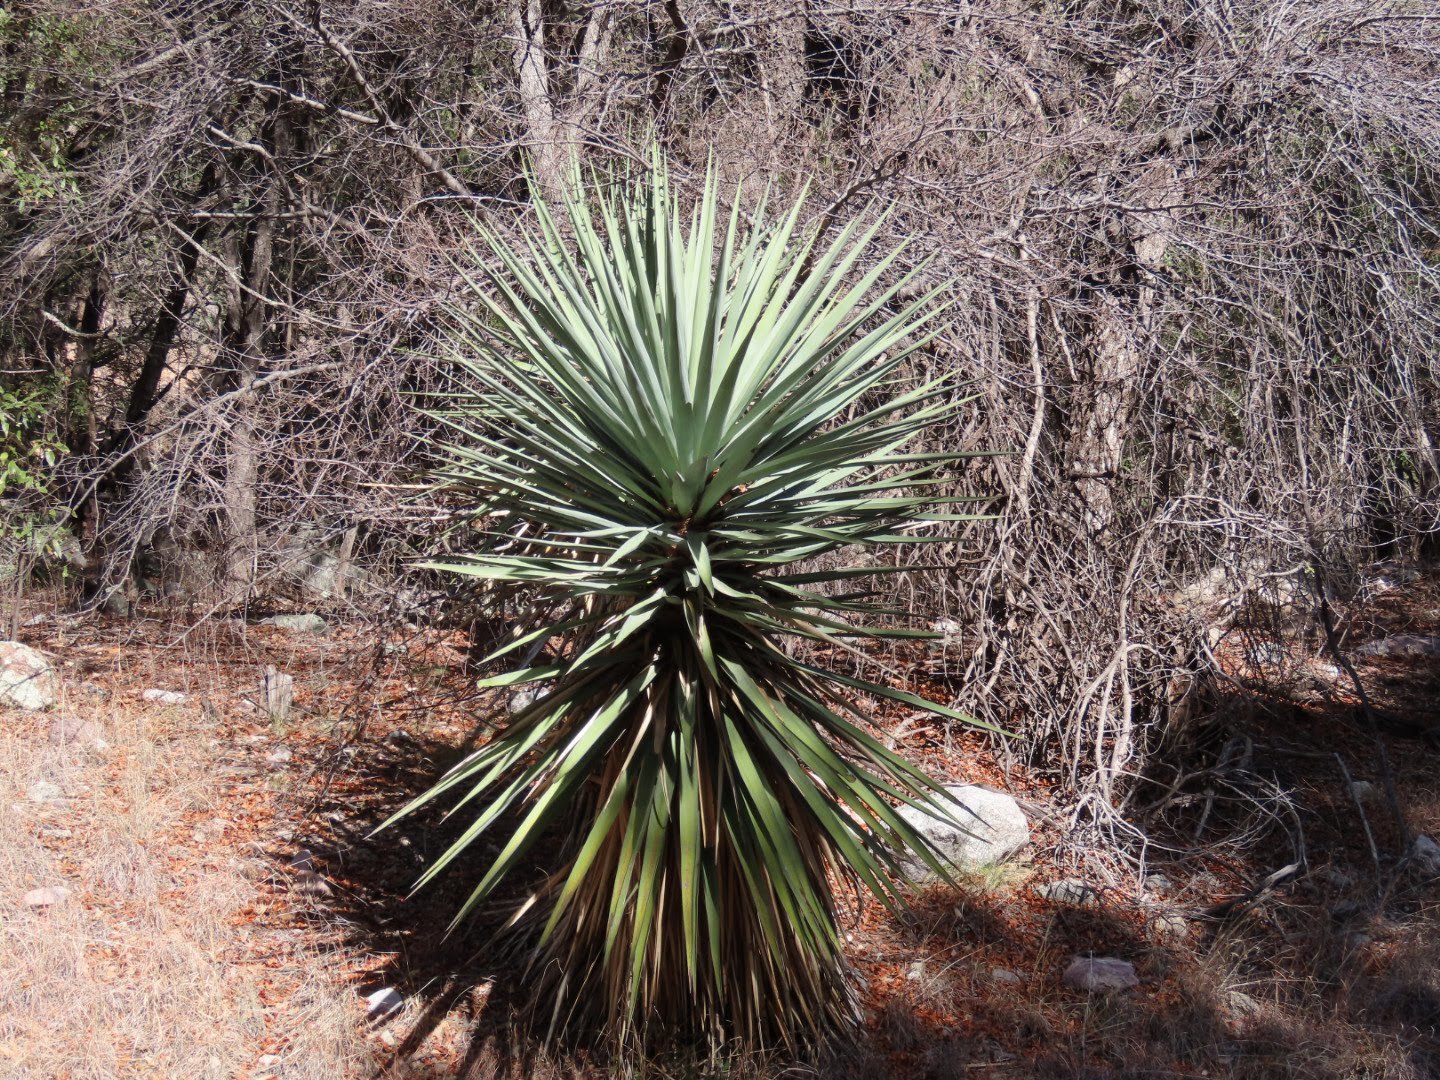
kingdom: Plantae
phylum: Tracheophyta
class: Liliopsida
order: Asparagales
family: Asparagaceae
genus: Yucca
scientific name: Yucca madrensis
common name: Hoary yucca
